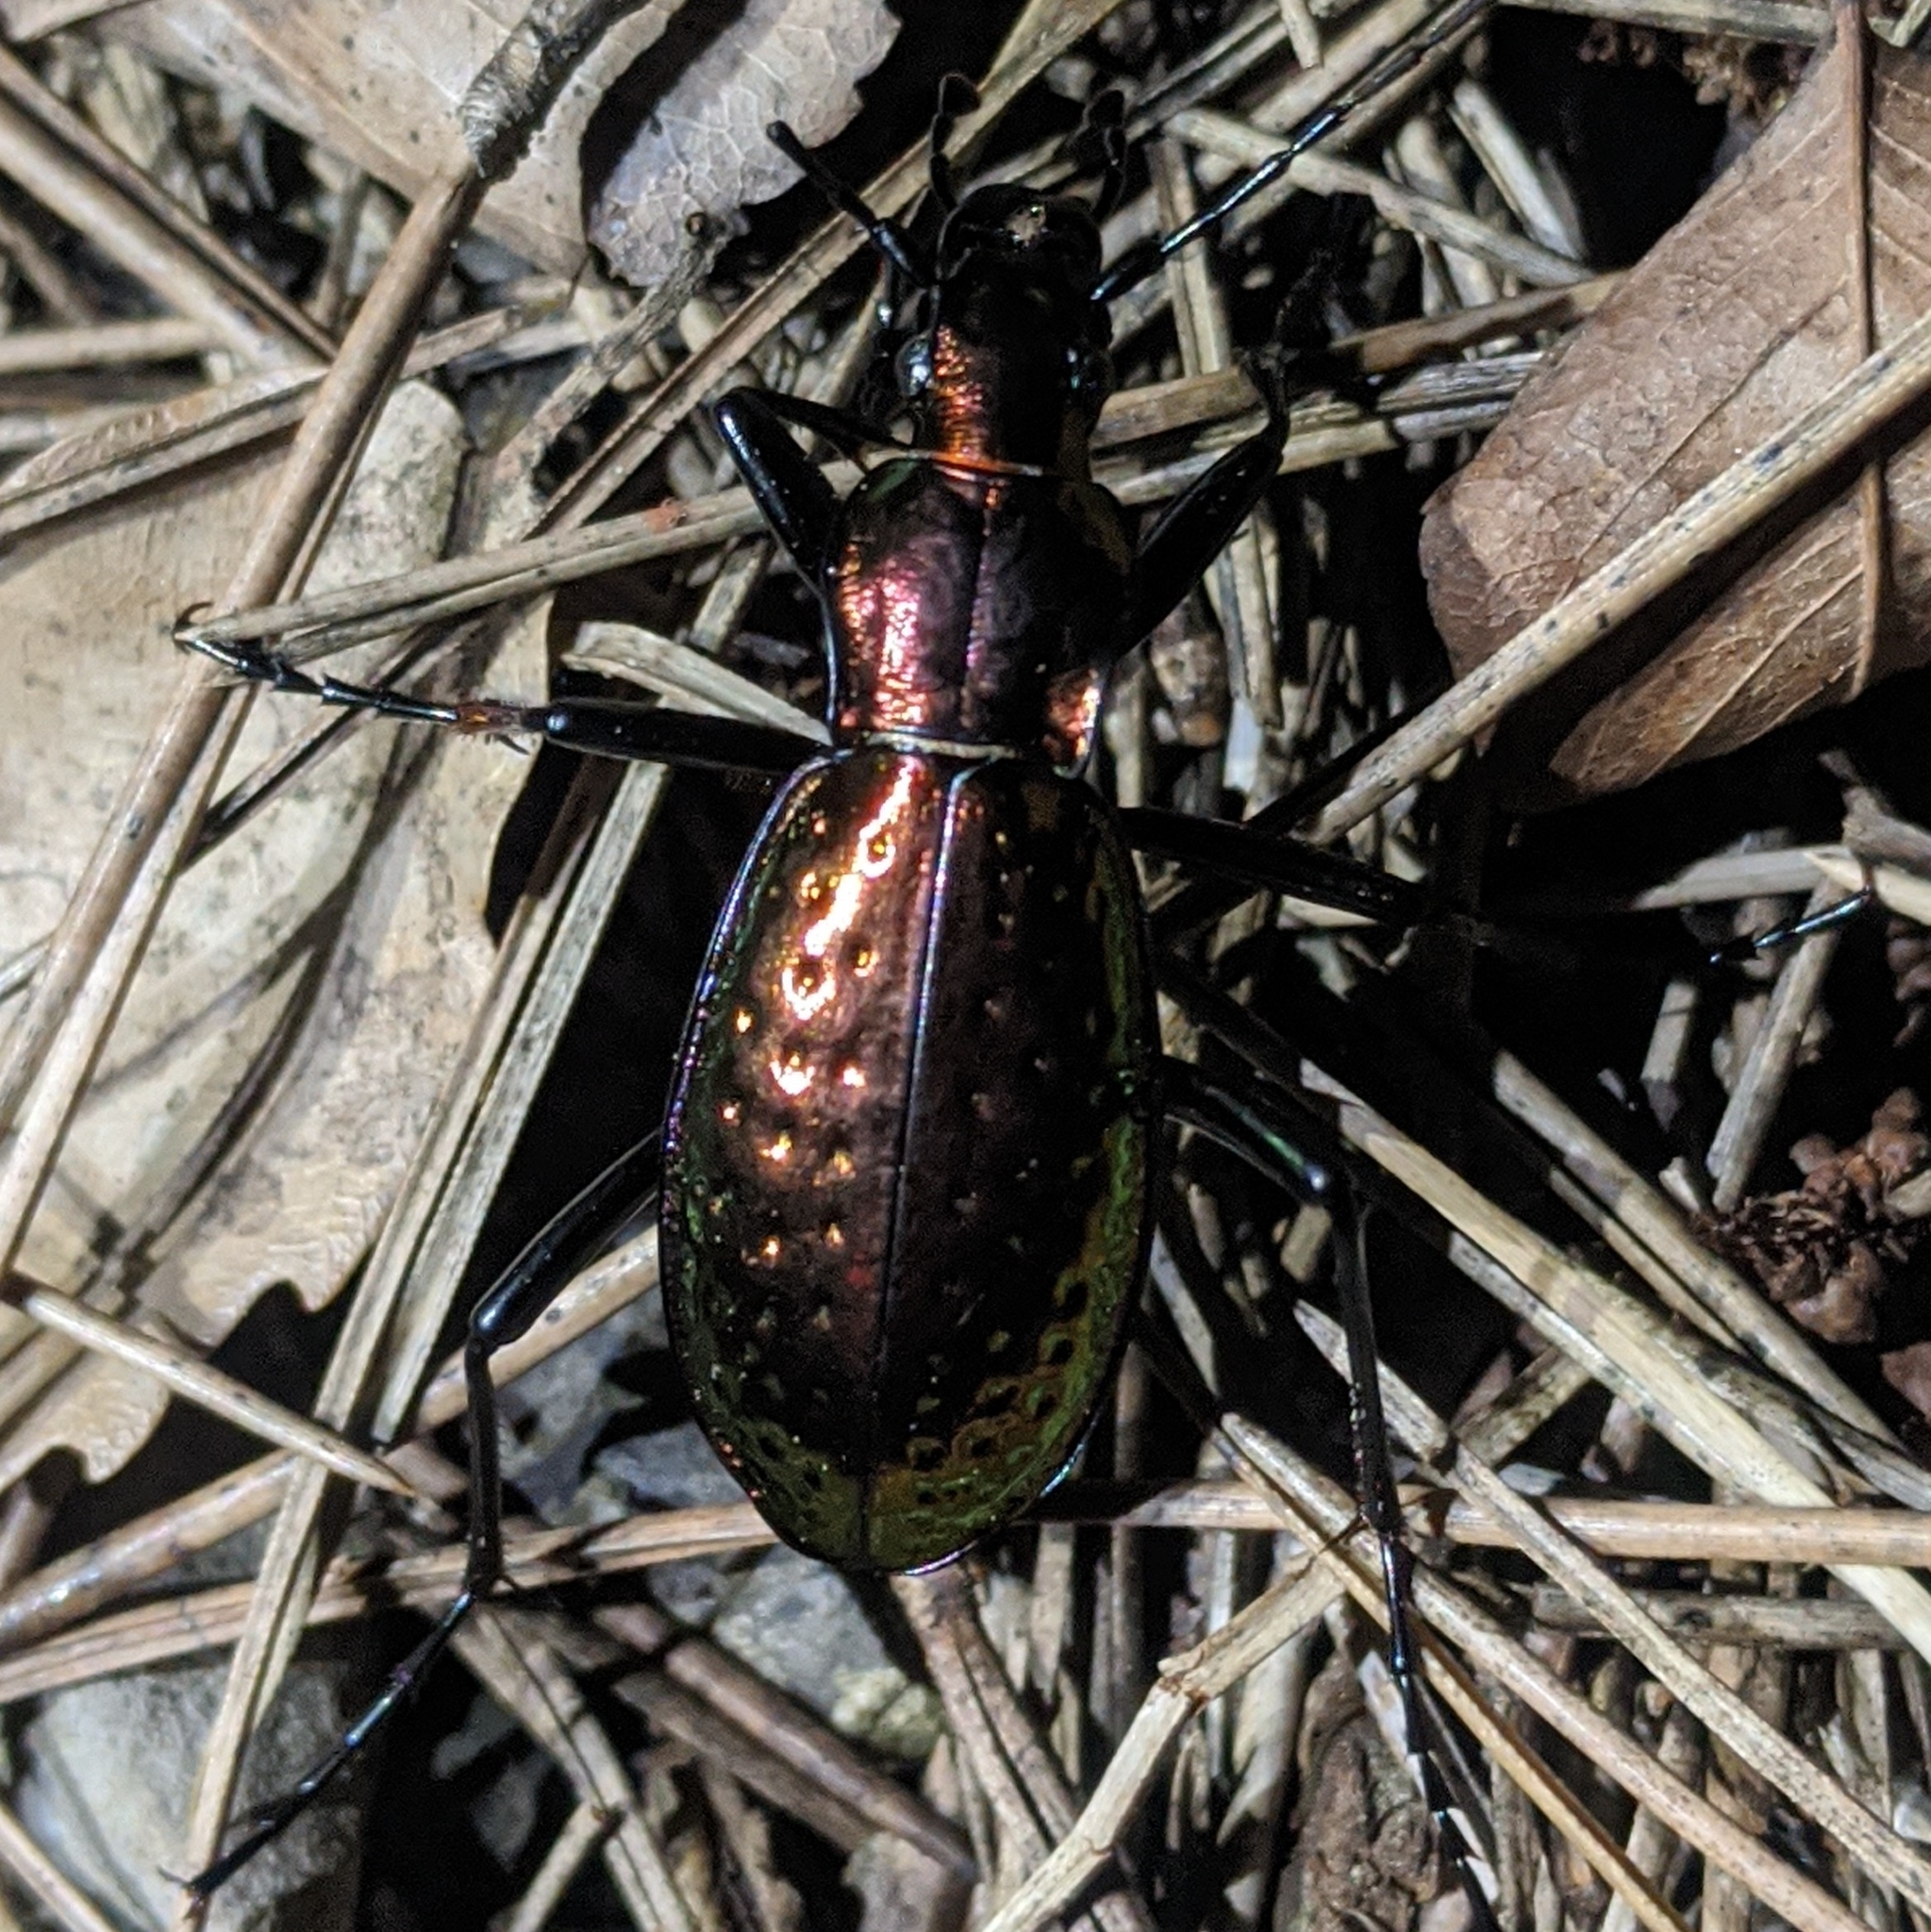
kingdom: Animalia
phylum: Arthropoda
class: Insecta
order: Coleoptera
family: Carabidae
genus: Carabus
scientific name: Carabus rutilans
